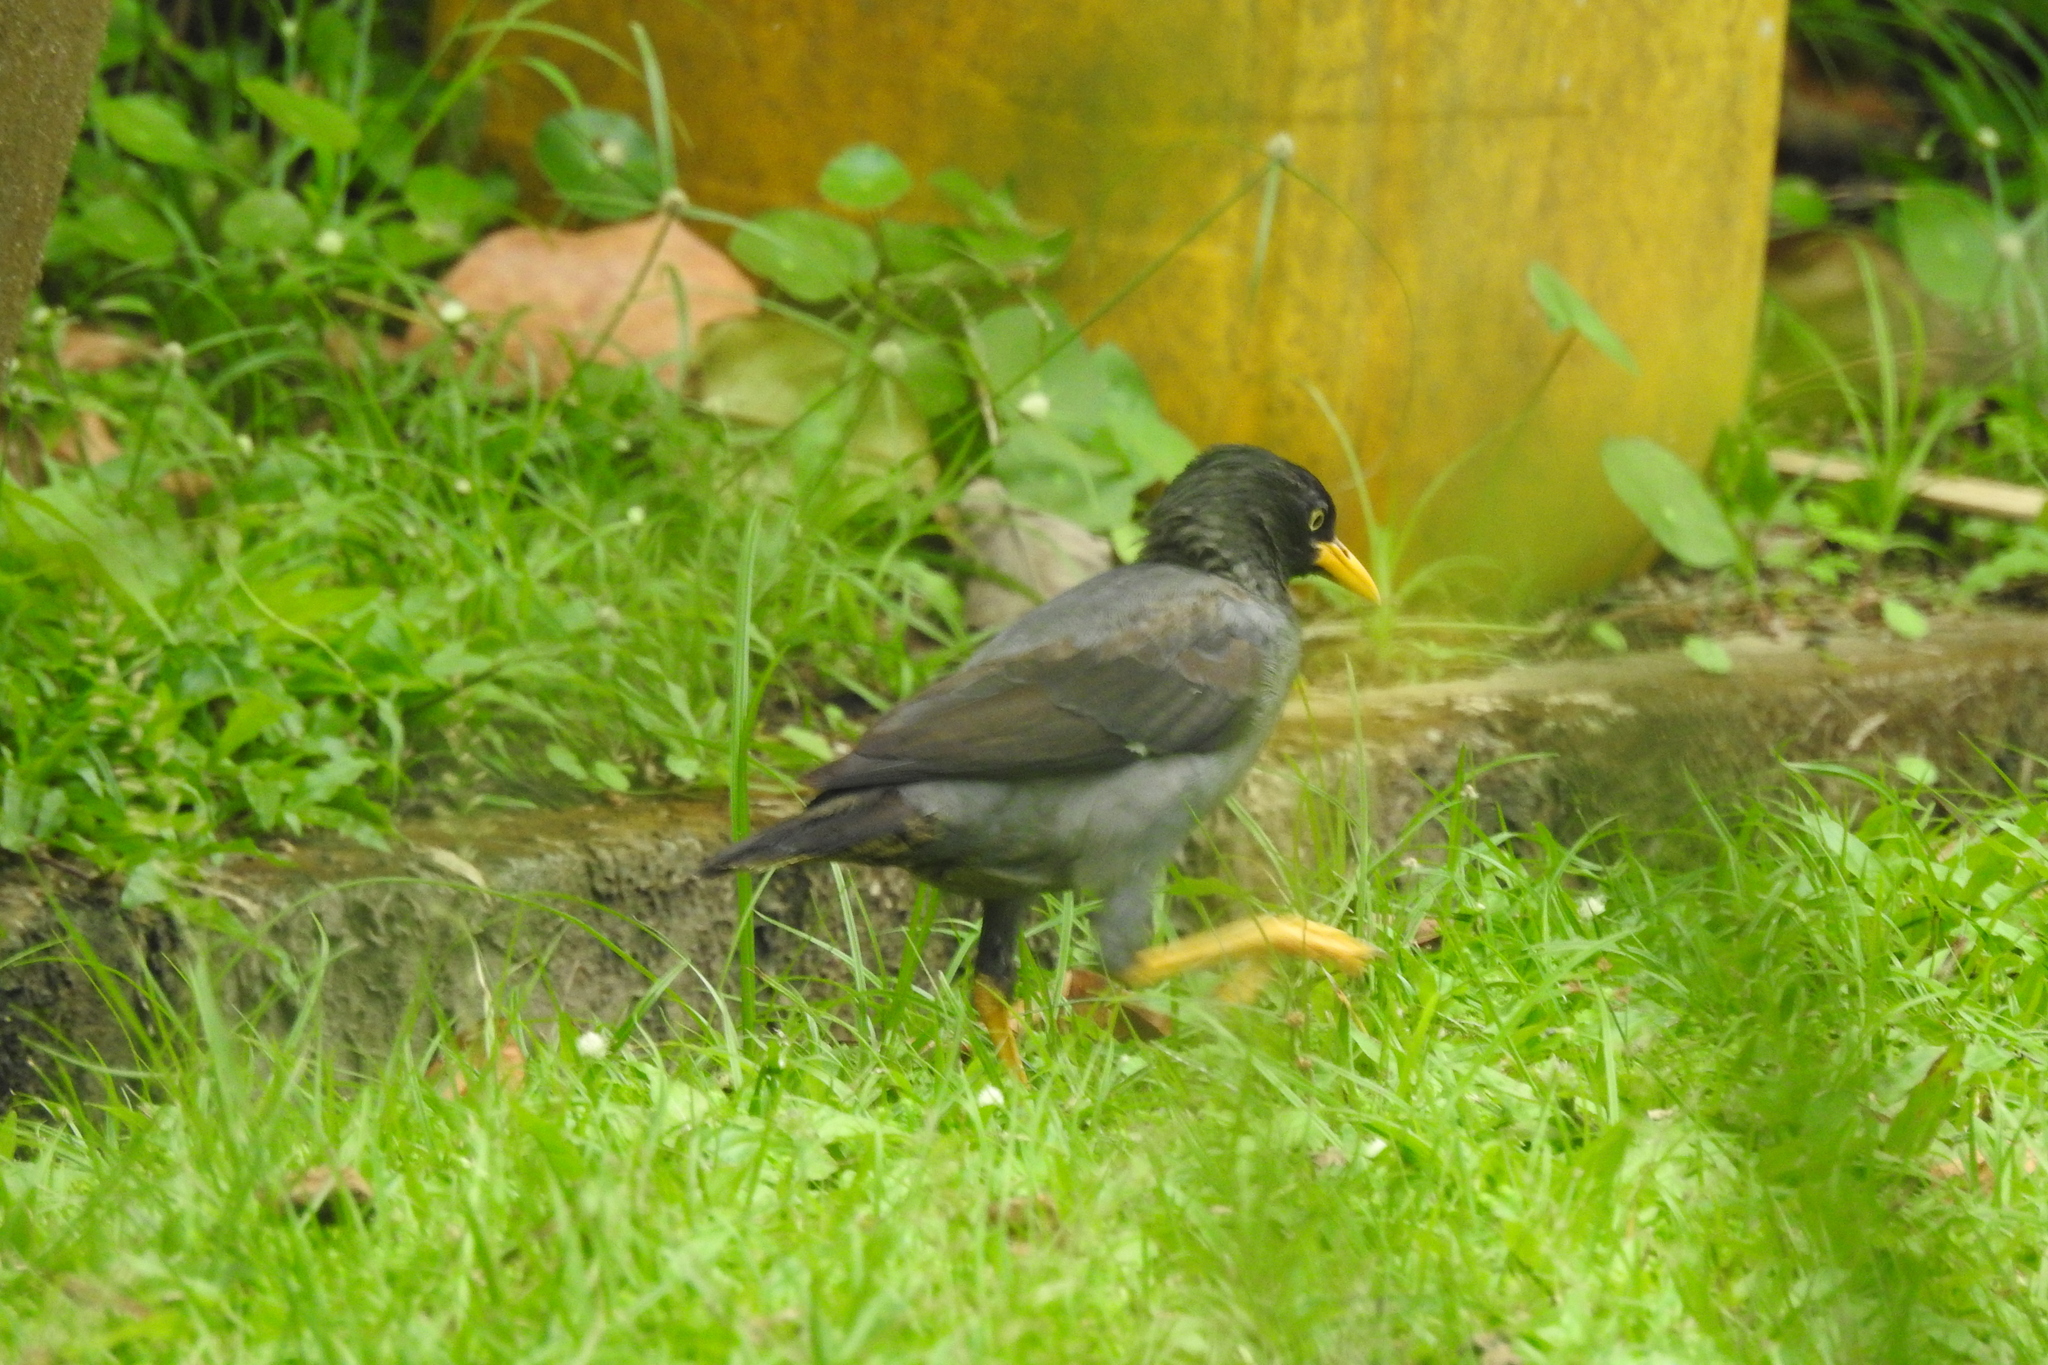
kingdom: Animalia
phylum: Chordata
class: Aves
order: Passeriformes
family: Sturnidae
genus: Acridotheres
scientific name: Acridotheres javanicus
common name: Javan myna
